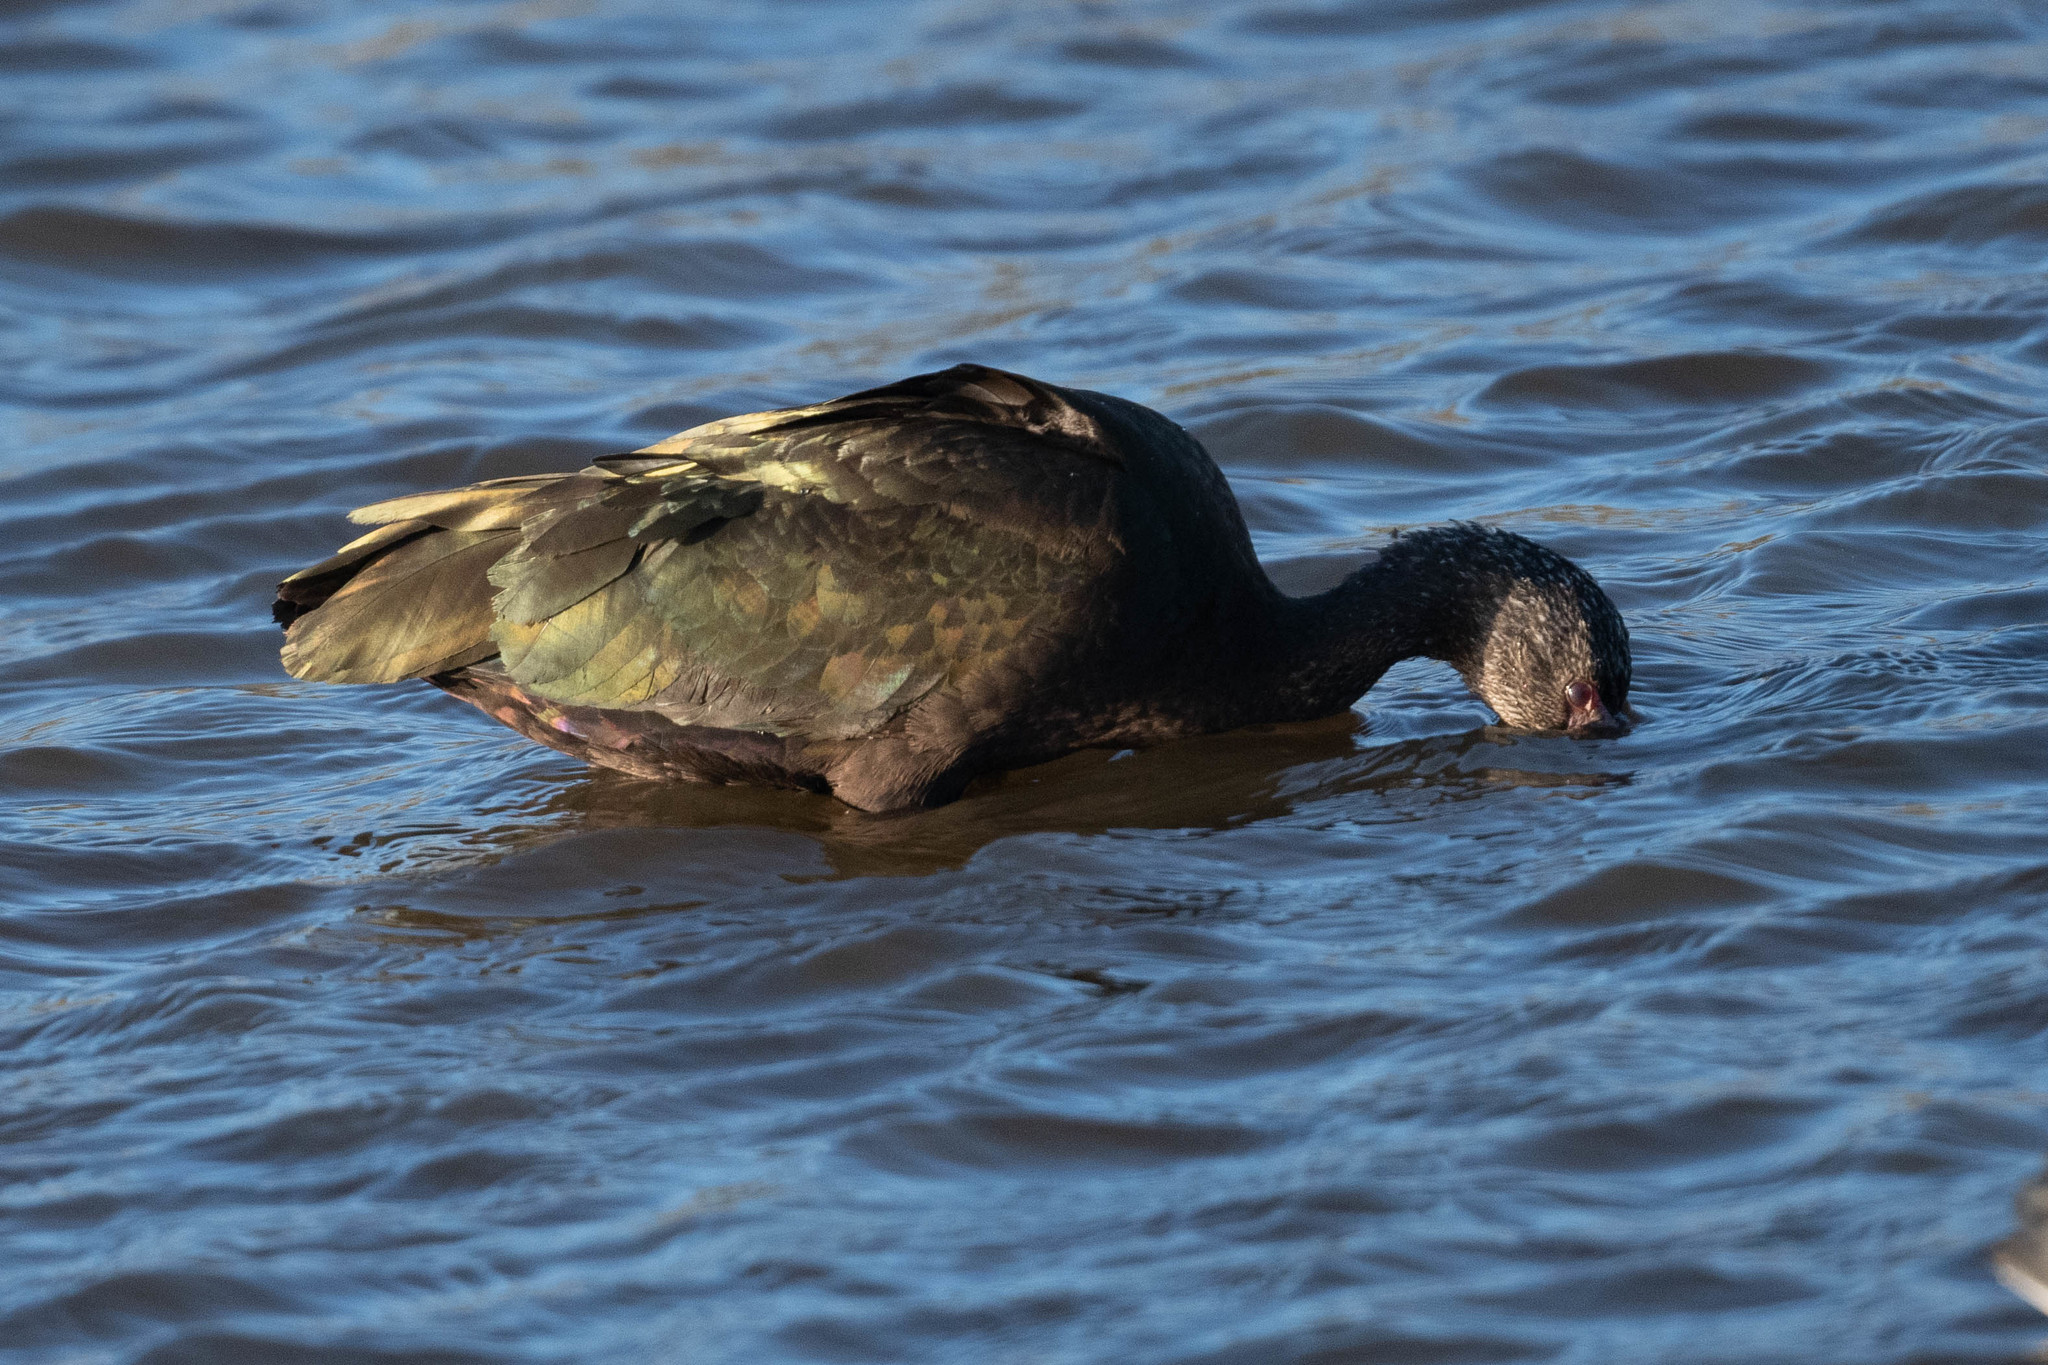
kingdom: Animalia
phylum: Chordata
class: Aves
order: Pelecaniformes
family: Threskiornithidae
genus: Plegadis
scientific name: Plegadis chihi
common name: White-faced ibis
